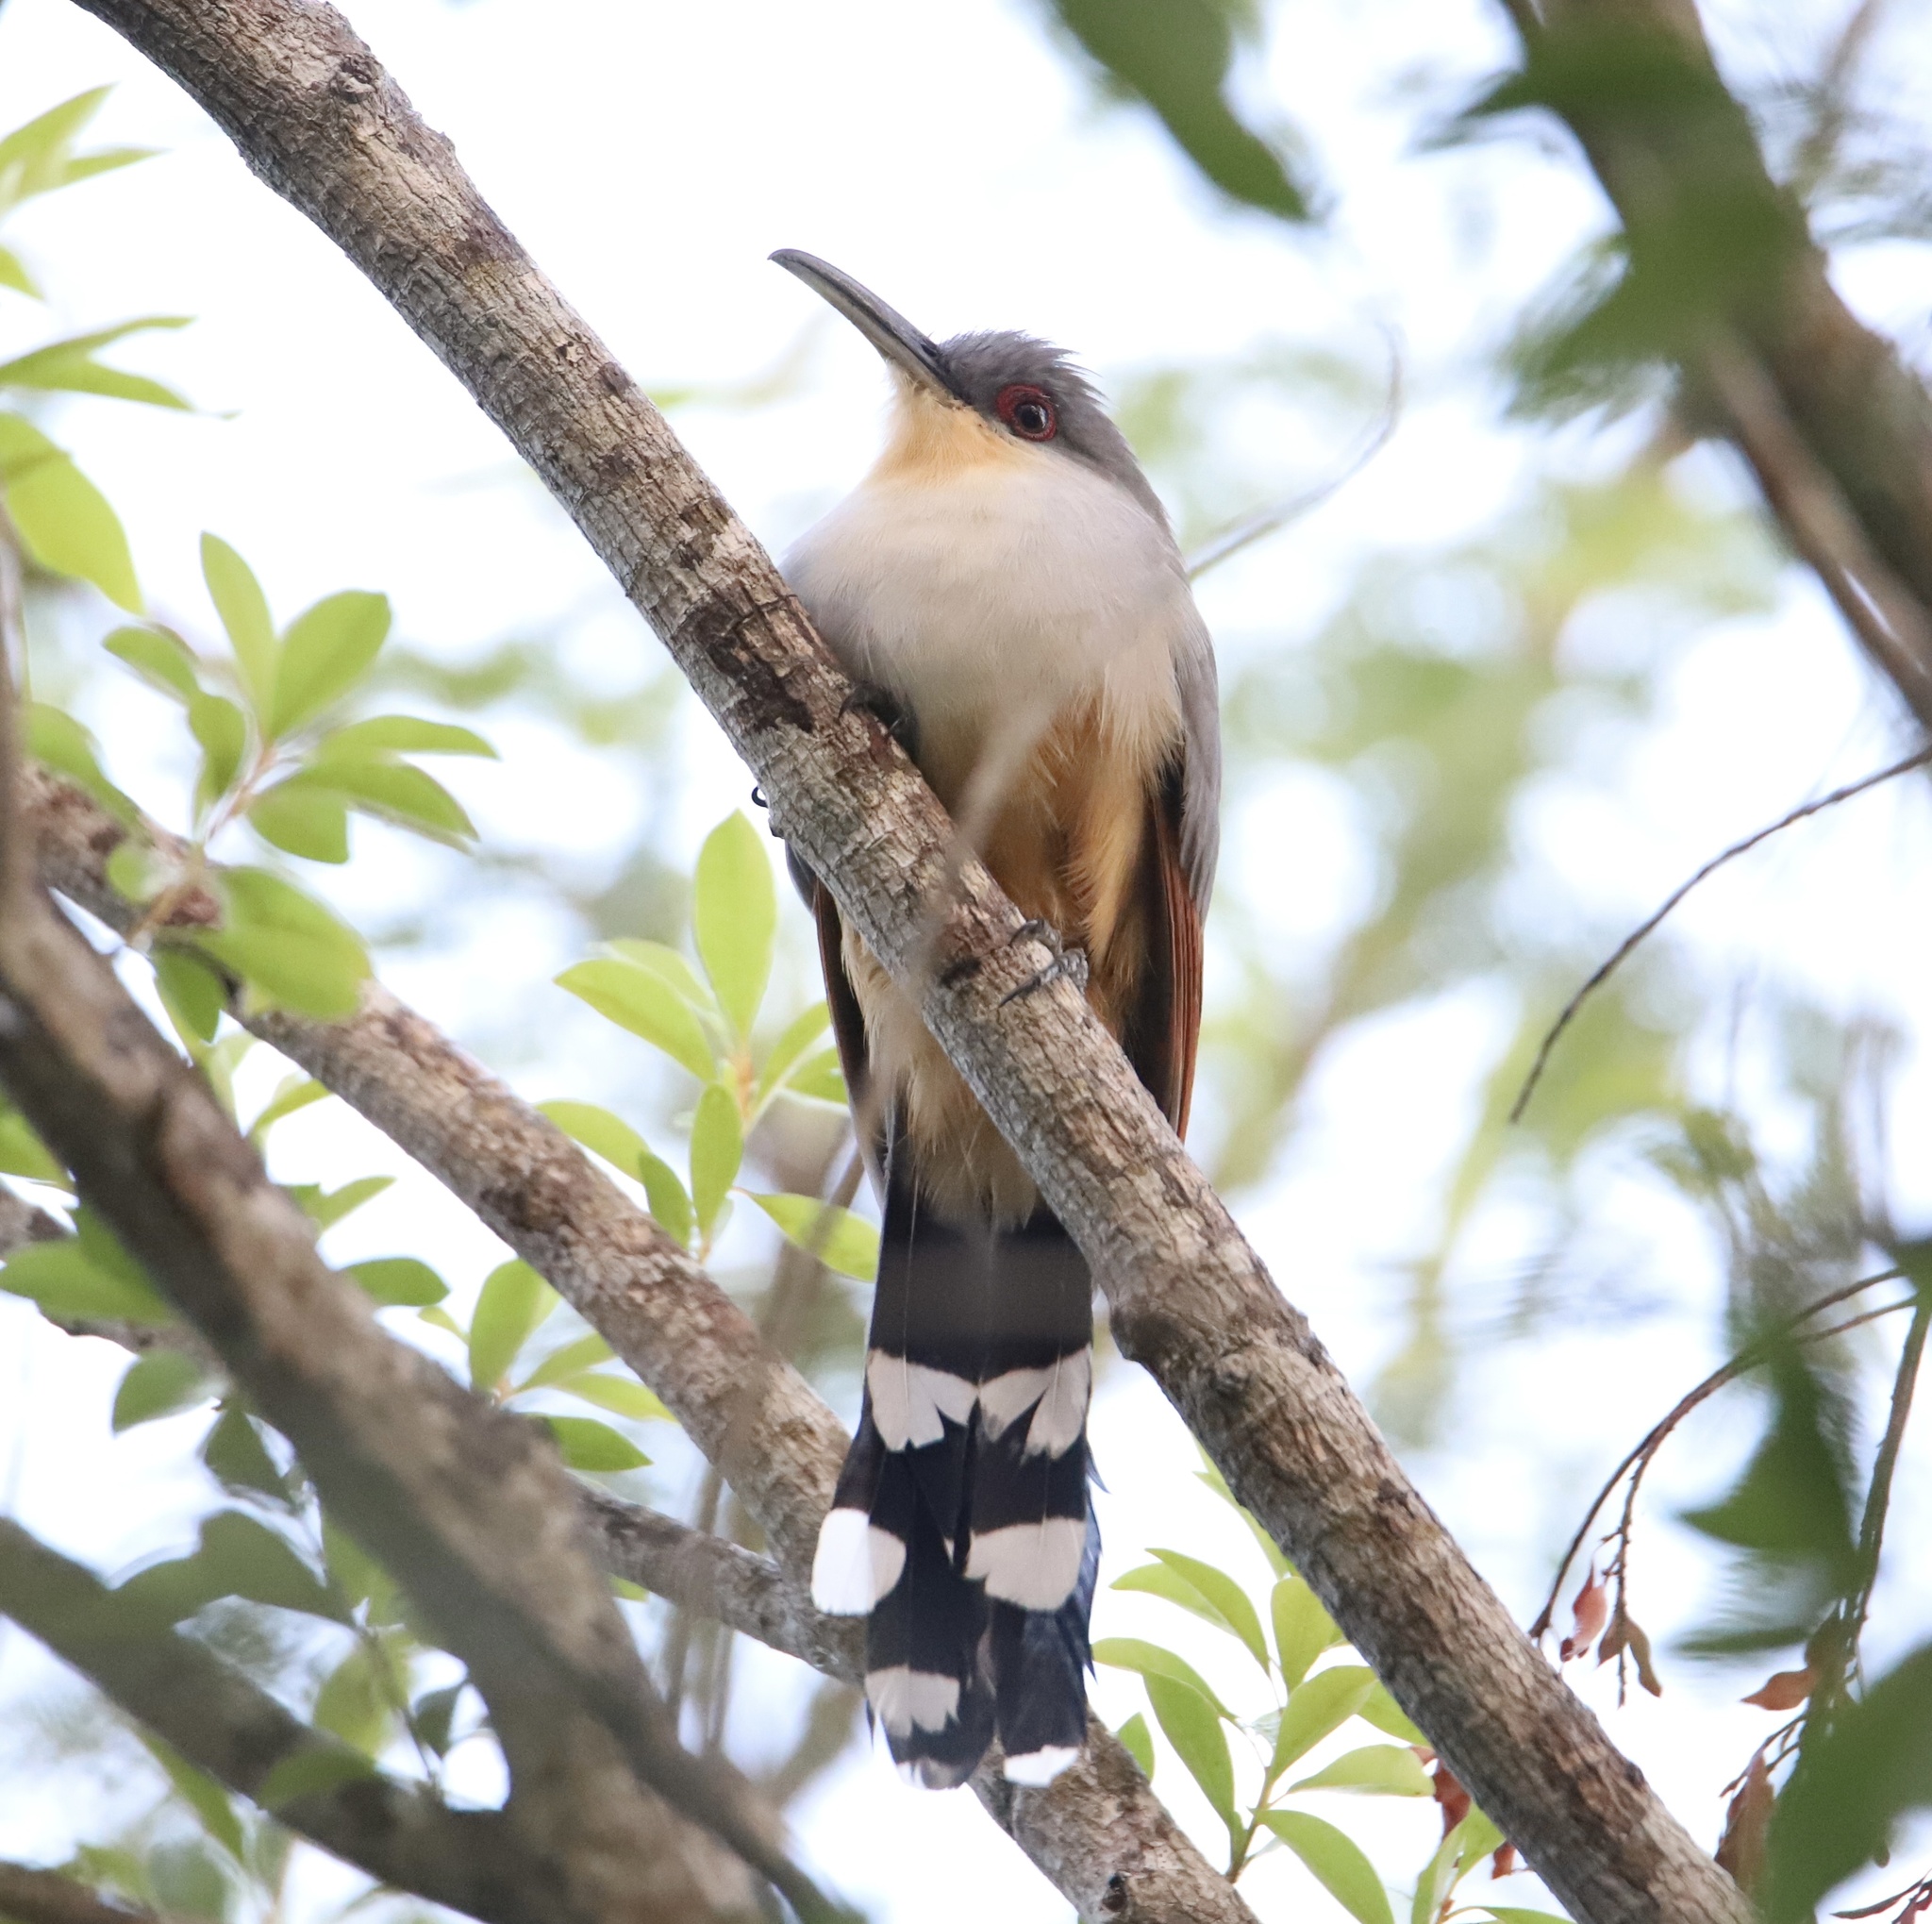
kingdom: Animalia
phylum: Chordata
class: Aves
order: Cuculiformes
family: Cuculidae
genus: Saurothera
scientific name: Saurothera longirostris
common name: Hispaniolan lizard-cuckoo
